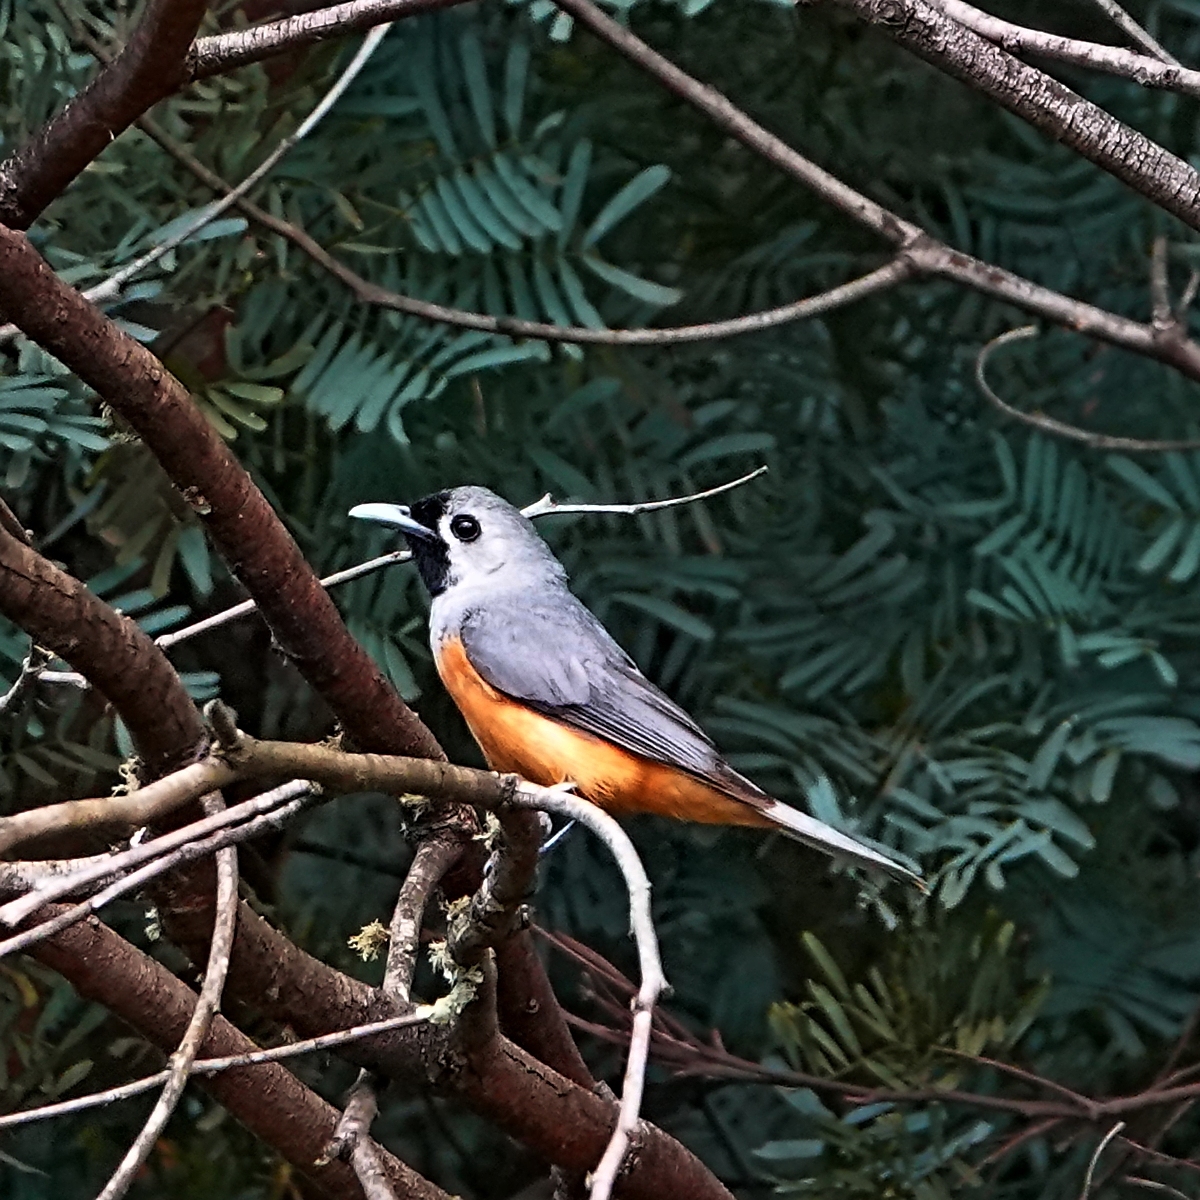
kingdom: Animalia
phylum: Chordata
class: Aves
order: Passeriformes
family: Monarchidae
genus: Monarcha
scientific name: Monarcha melanopsis
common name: Black-faced monarch
